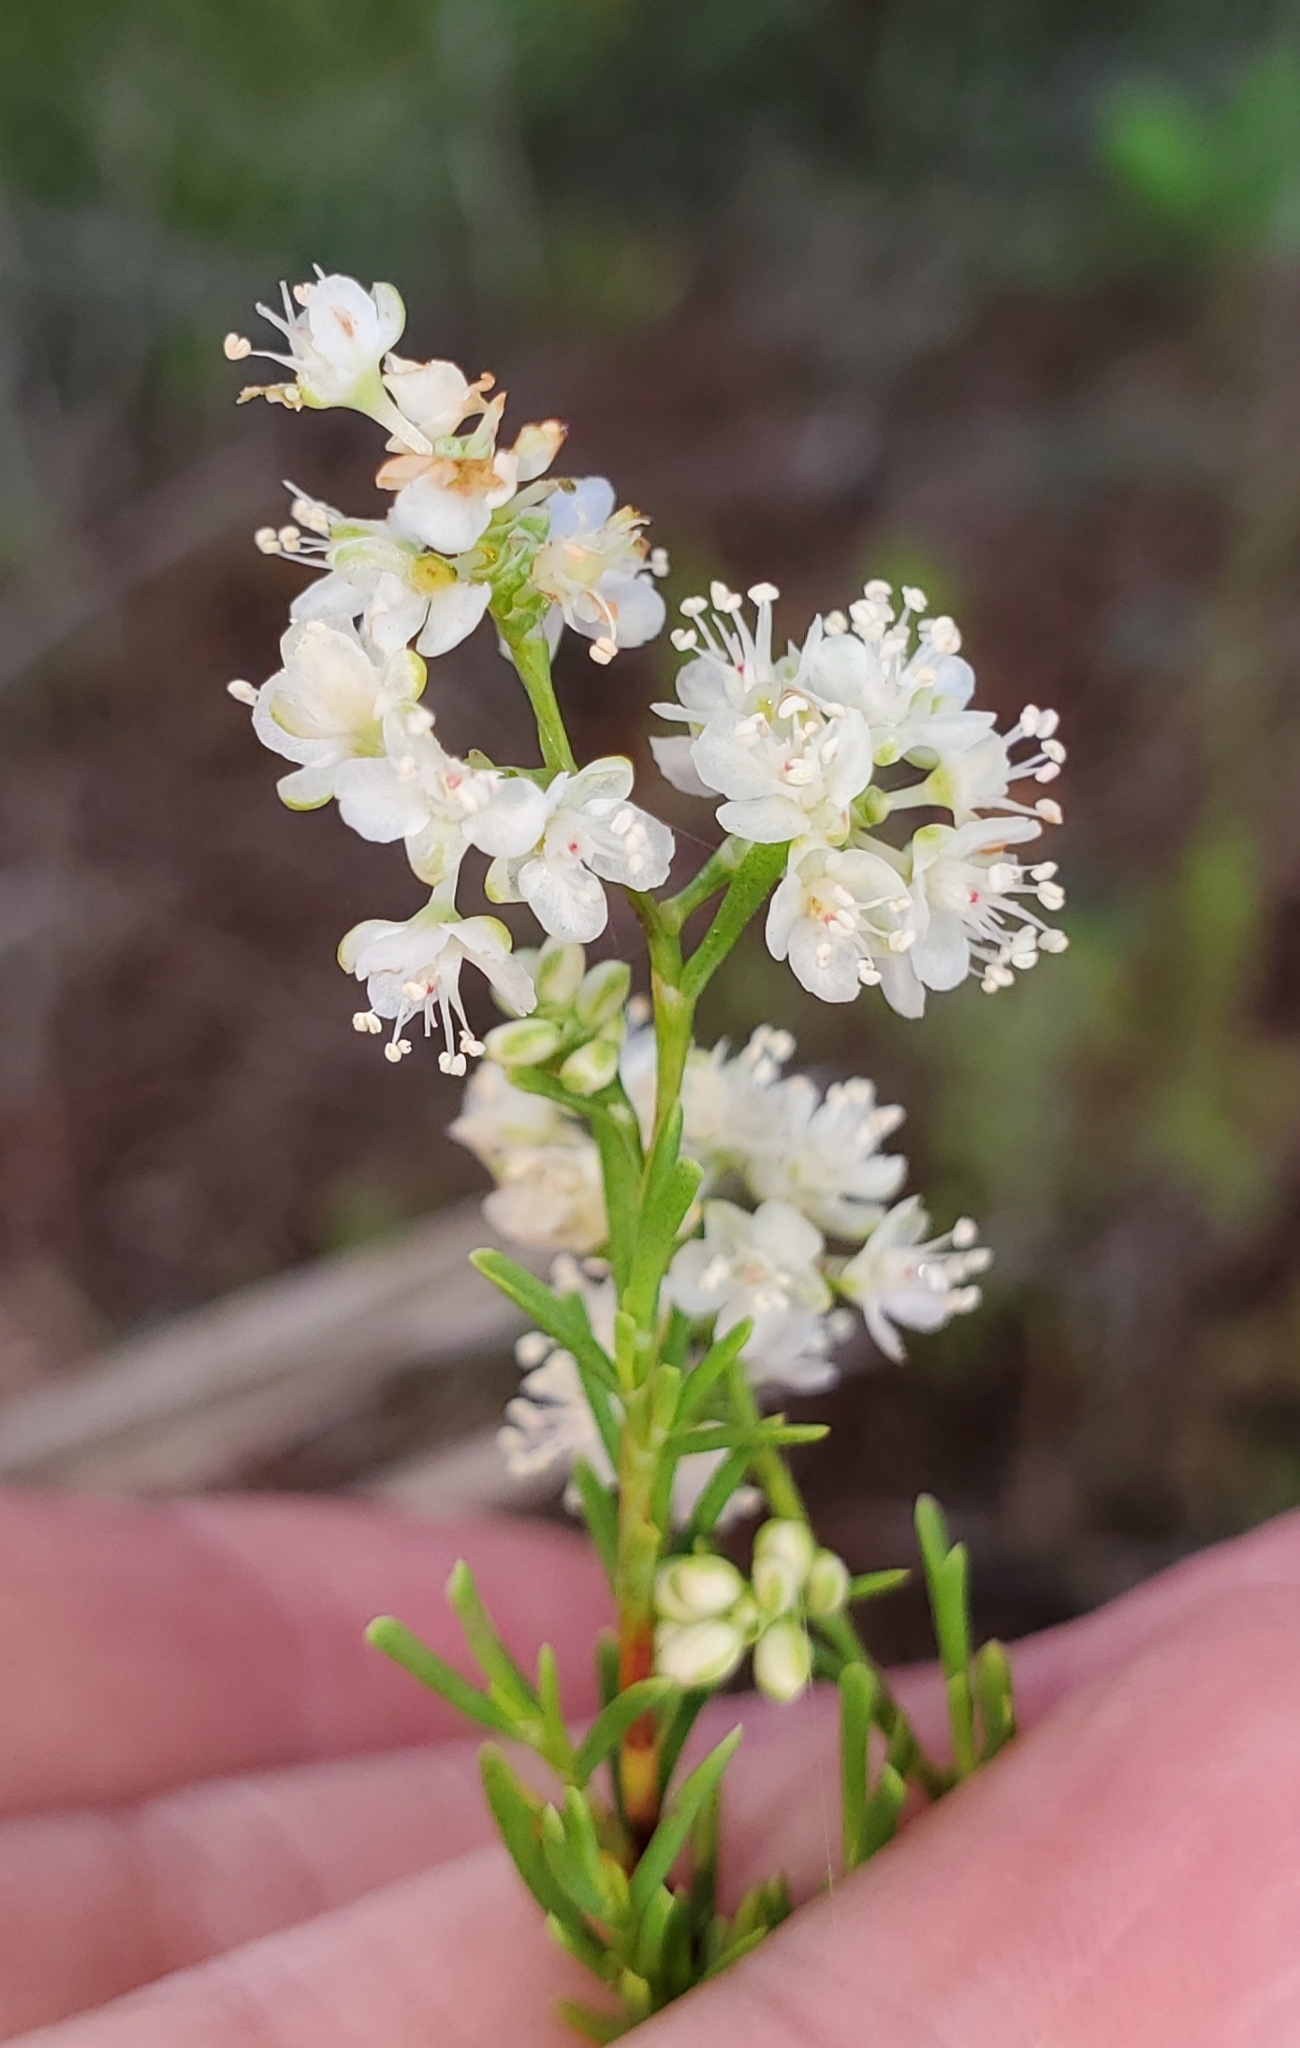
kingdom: Plantae
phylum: Tracheophyta
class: Magnoliopsida
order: Caryophyllales
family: Polygonaceae
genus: Polygonella
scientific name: Polygonella myriophylla
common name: Sandlace
